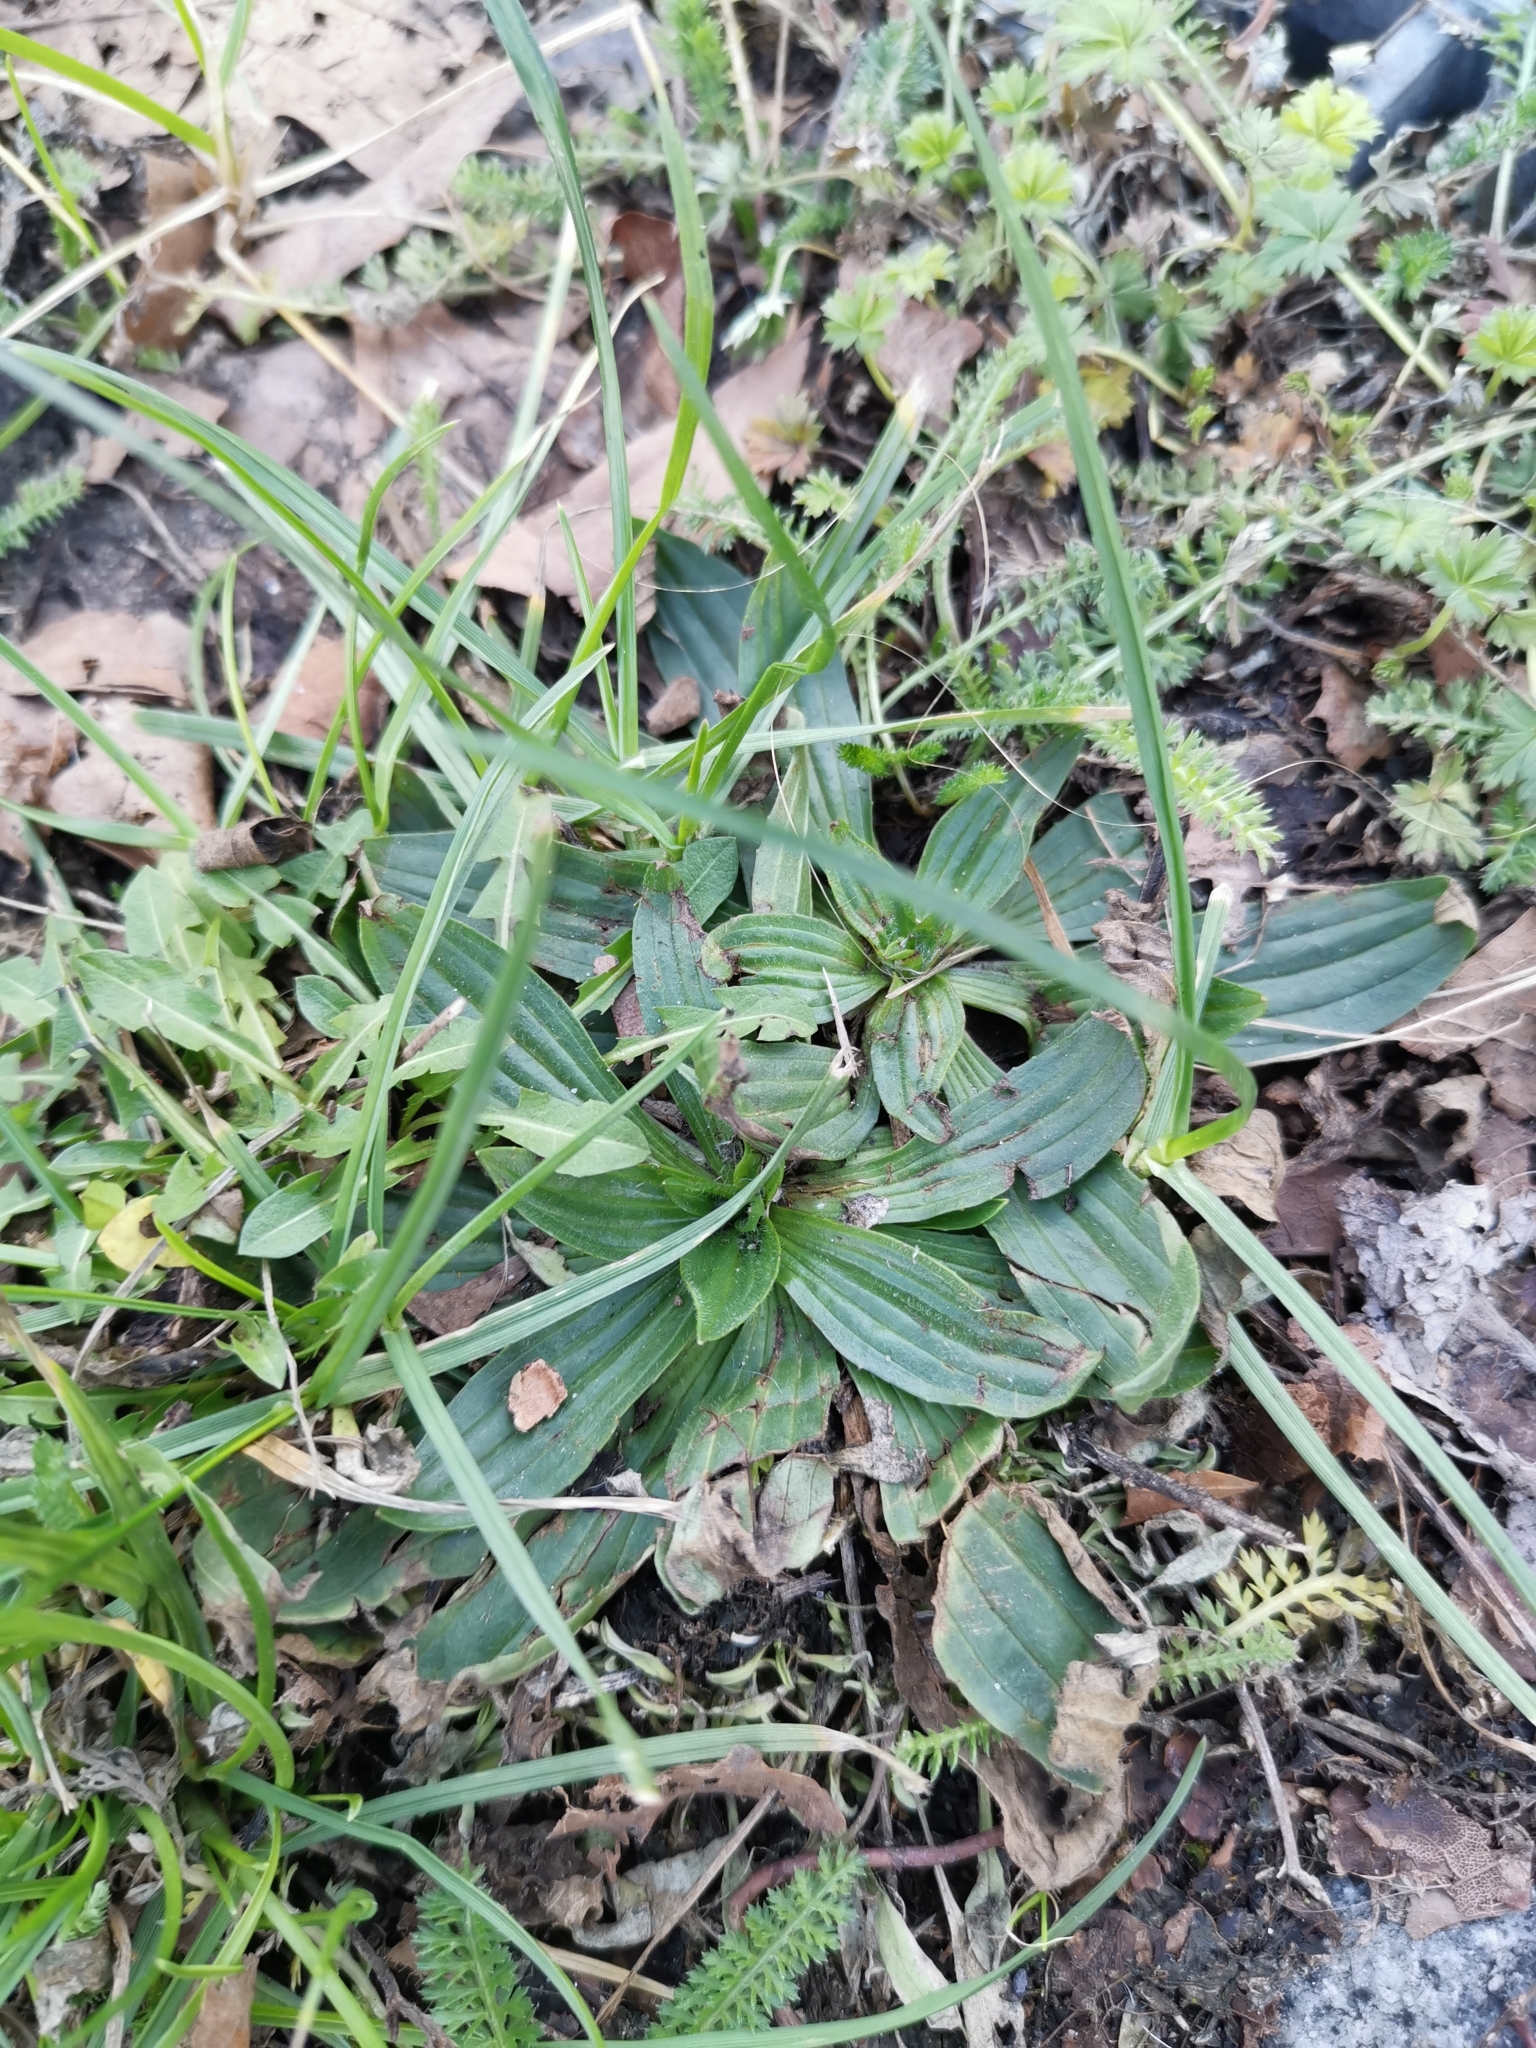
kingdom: Plantae
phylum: Tracheophyta
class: Magnoliopsida
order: Lamiales
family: Plantaginaceae
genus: Plantago
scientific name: Plantago lanceolata
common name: Ribwort plantain
